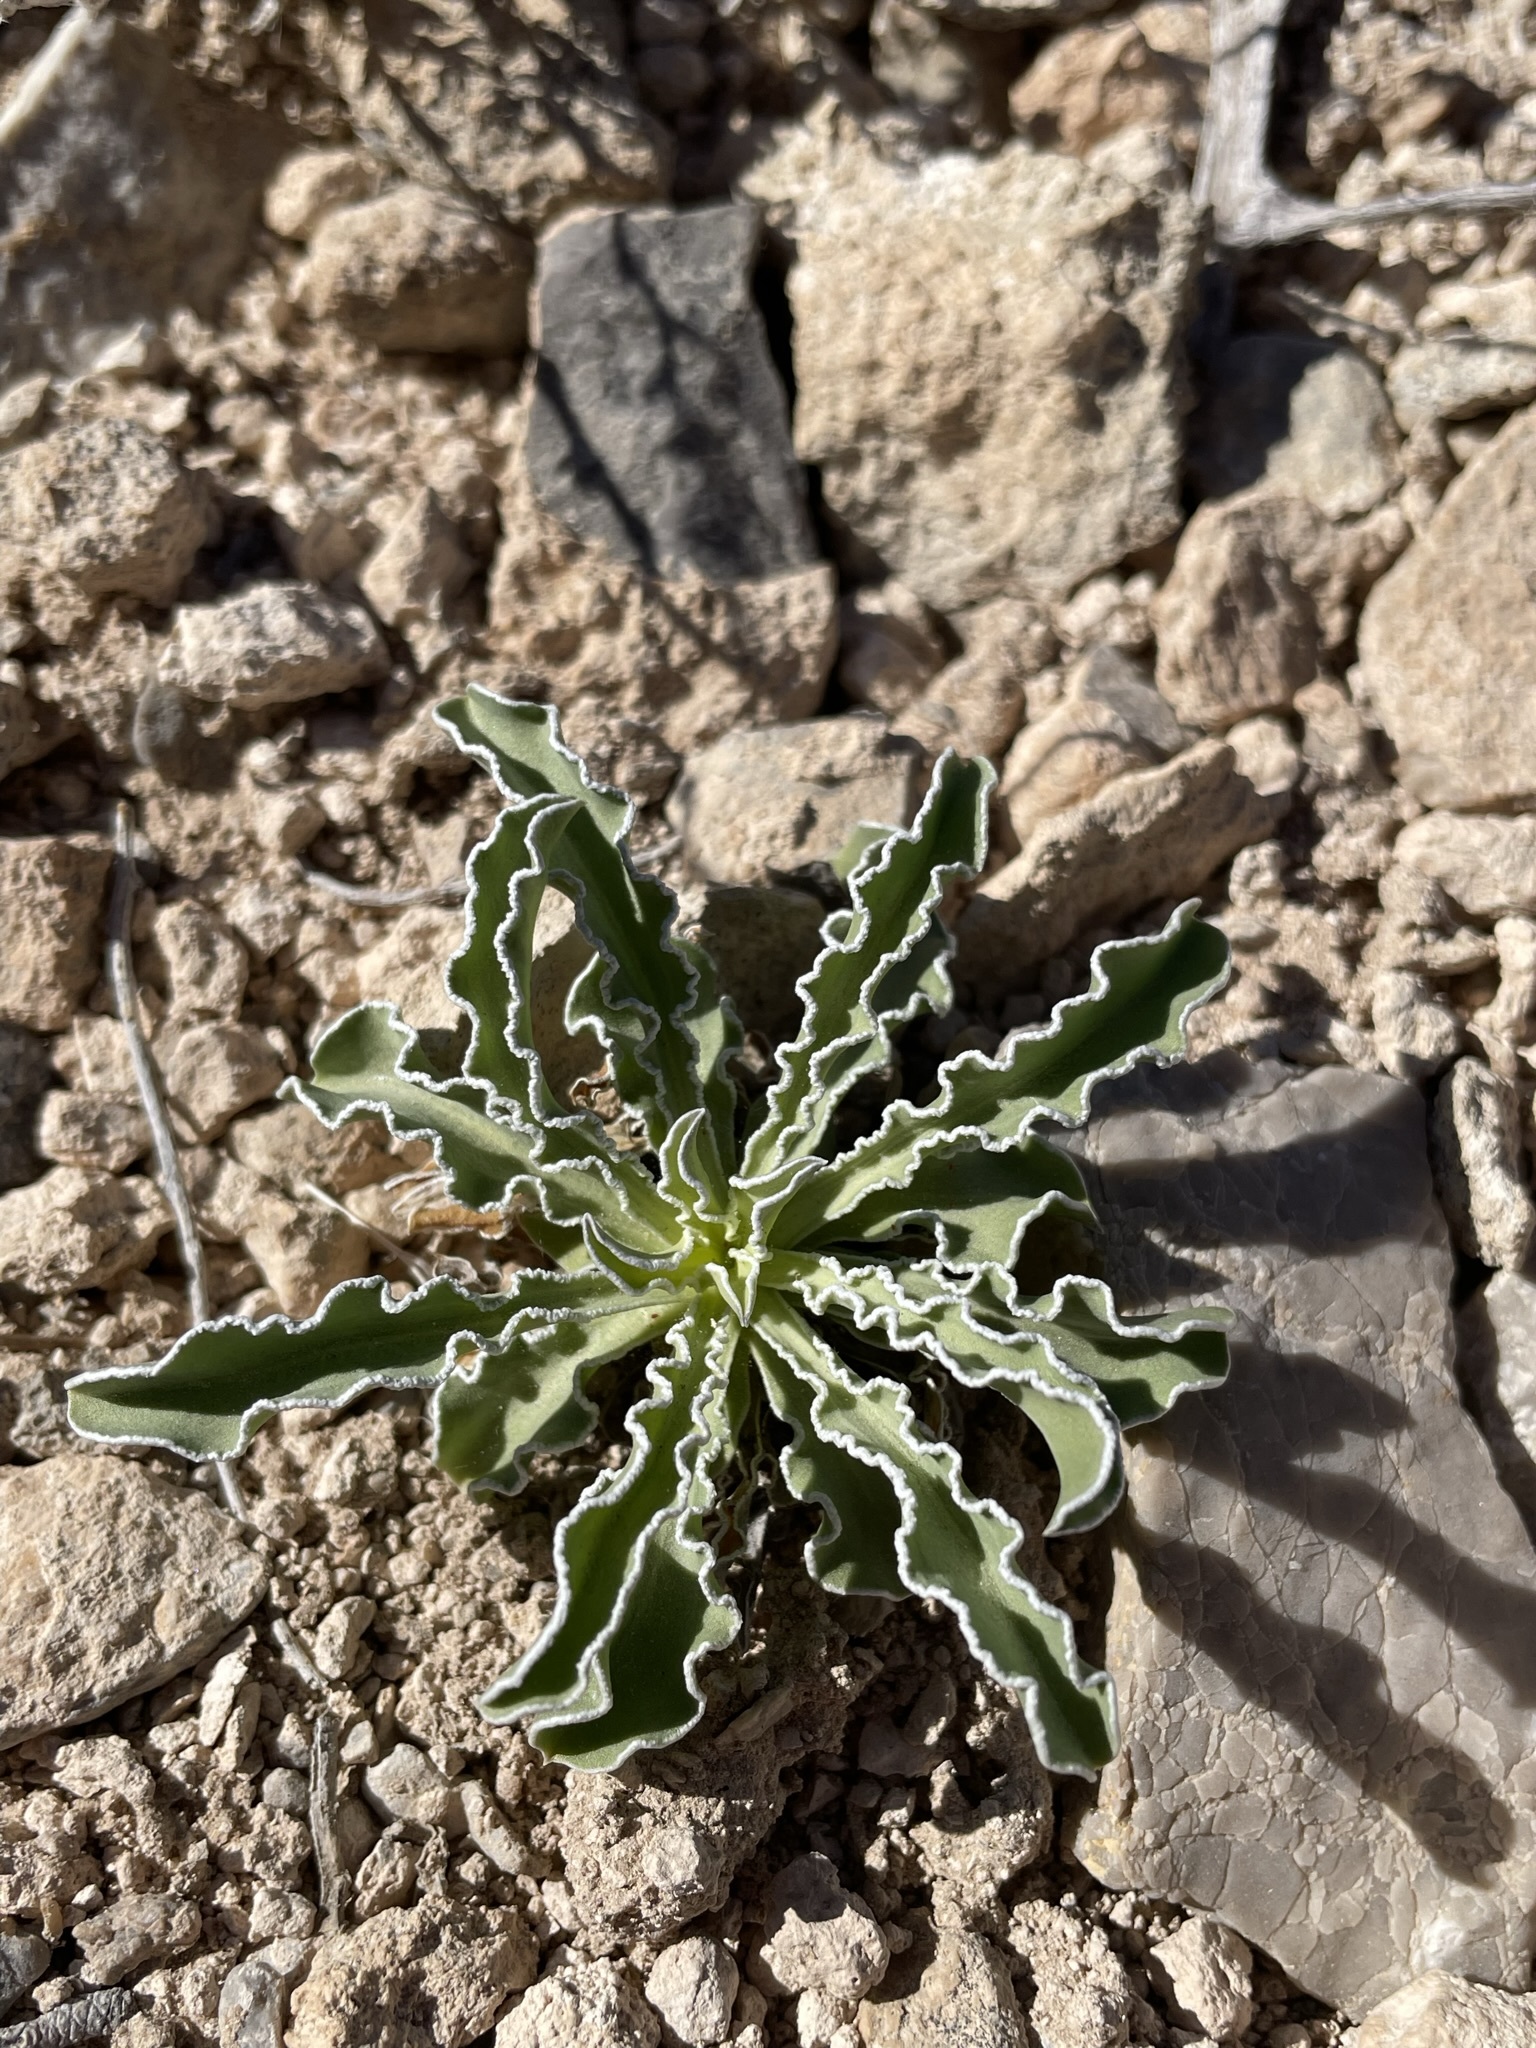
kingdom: Plantae
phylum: Tracheophyta
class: Magnoliopsida
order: Gentianales
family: Gentianaceae
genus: Frasera
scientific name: Frasera albomarginata
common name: Desert frasera
